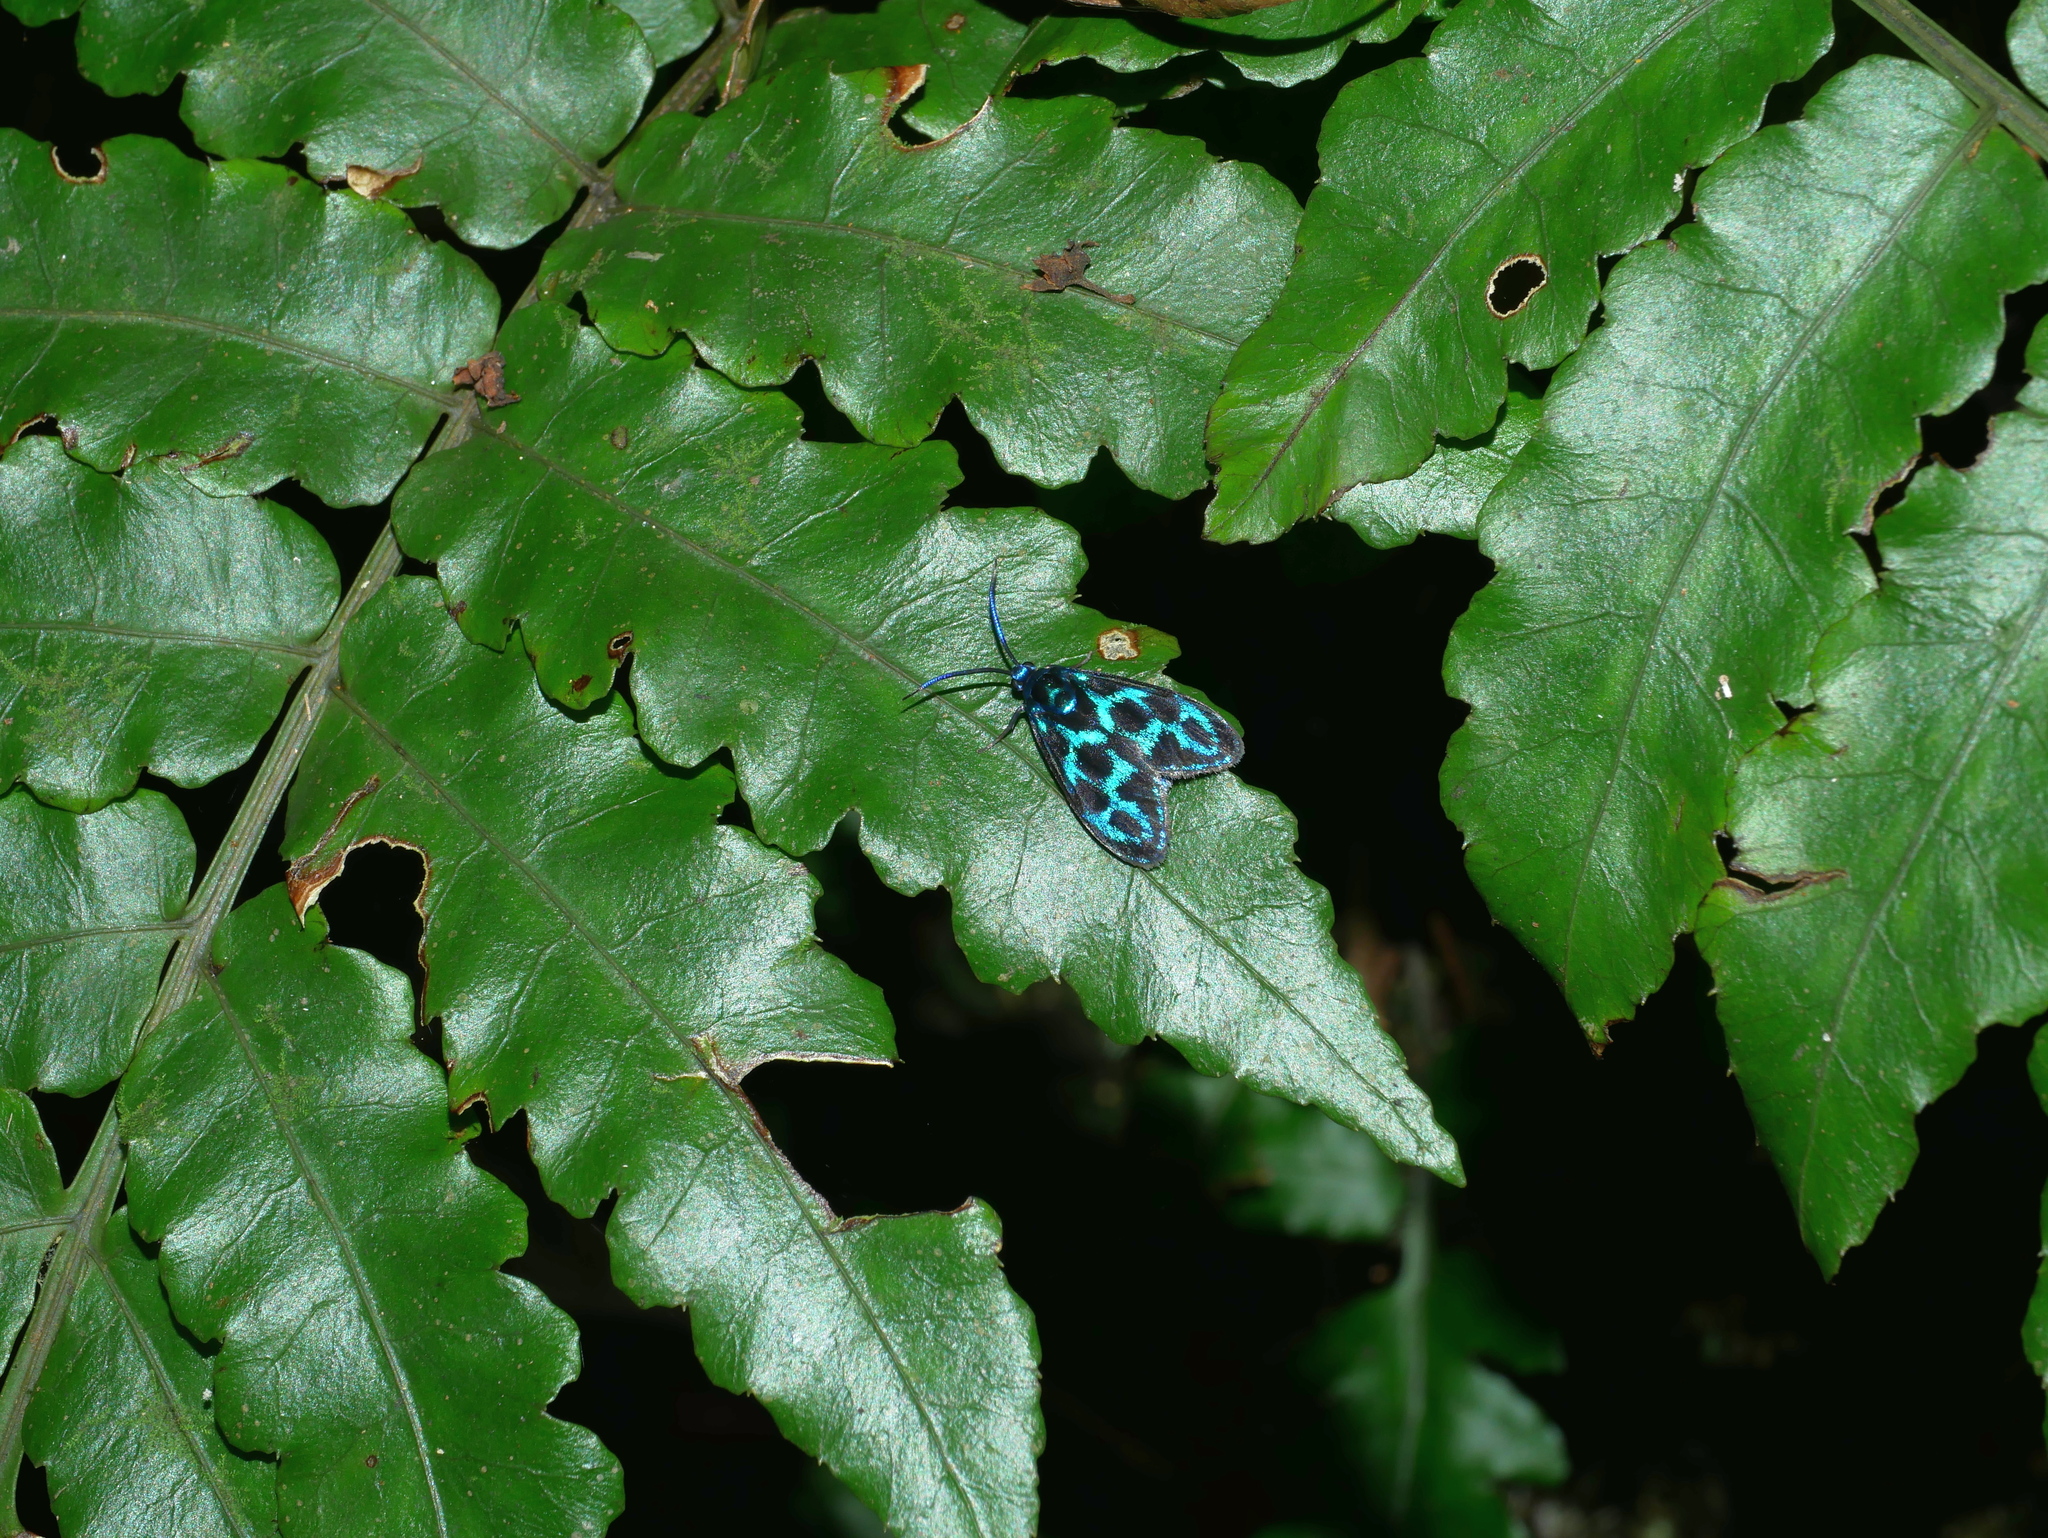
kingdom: Animalia
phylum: Arthropoda
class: Insecta
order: Lepidoptera
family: Zygaenidae
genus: Clelea
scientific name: Clelea nigroviridis
